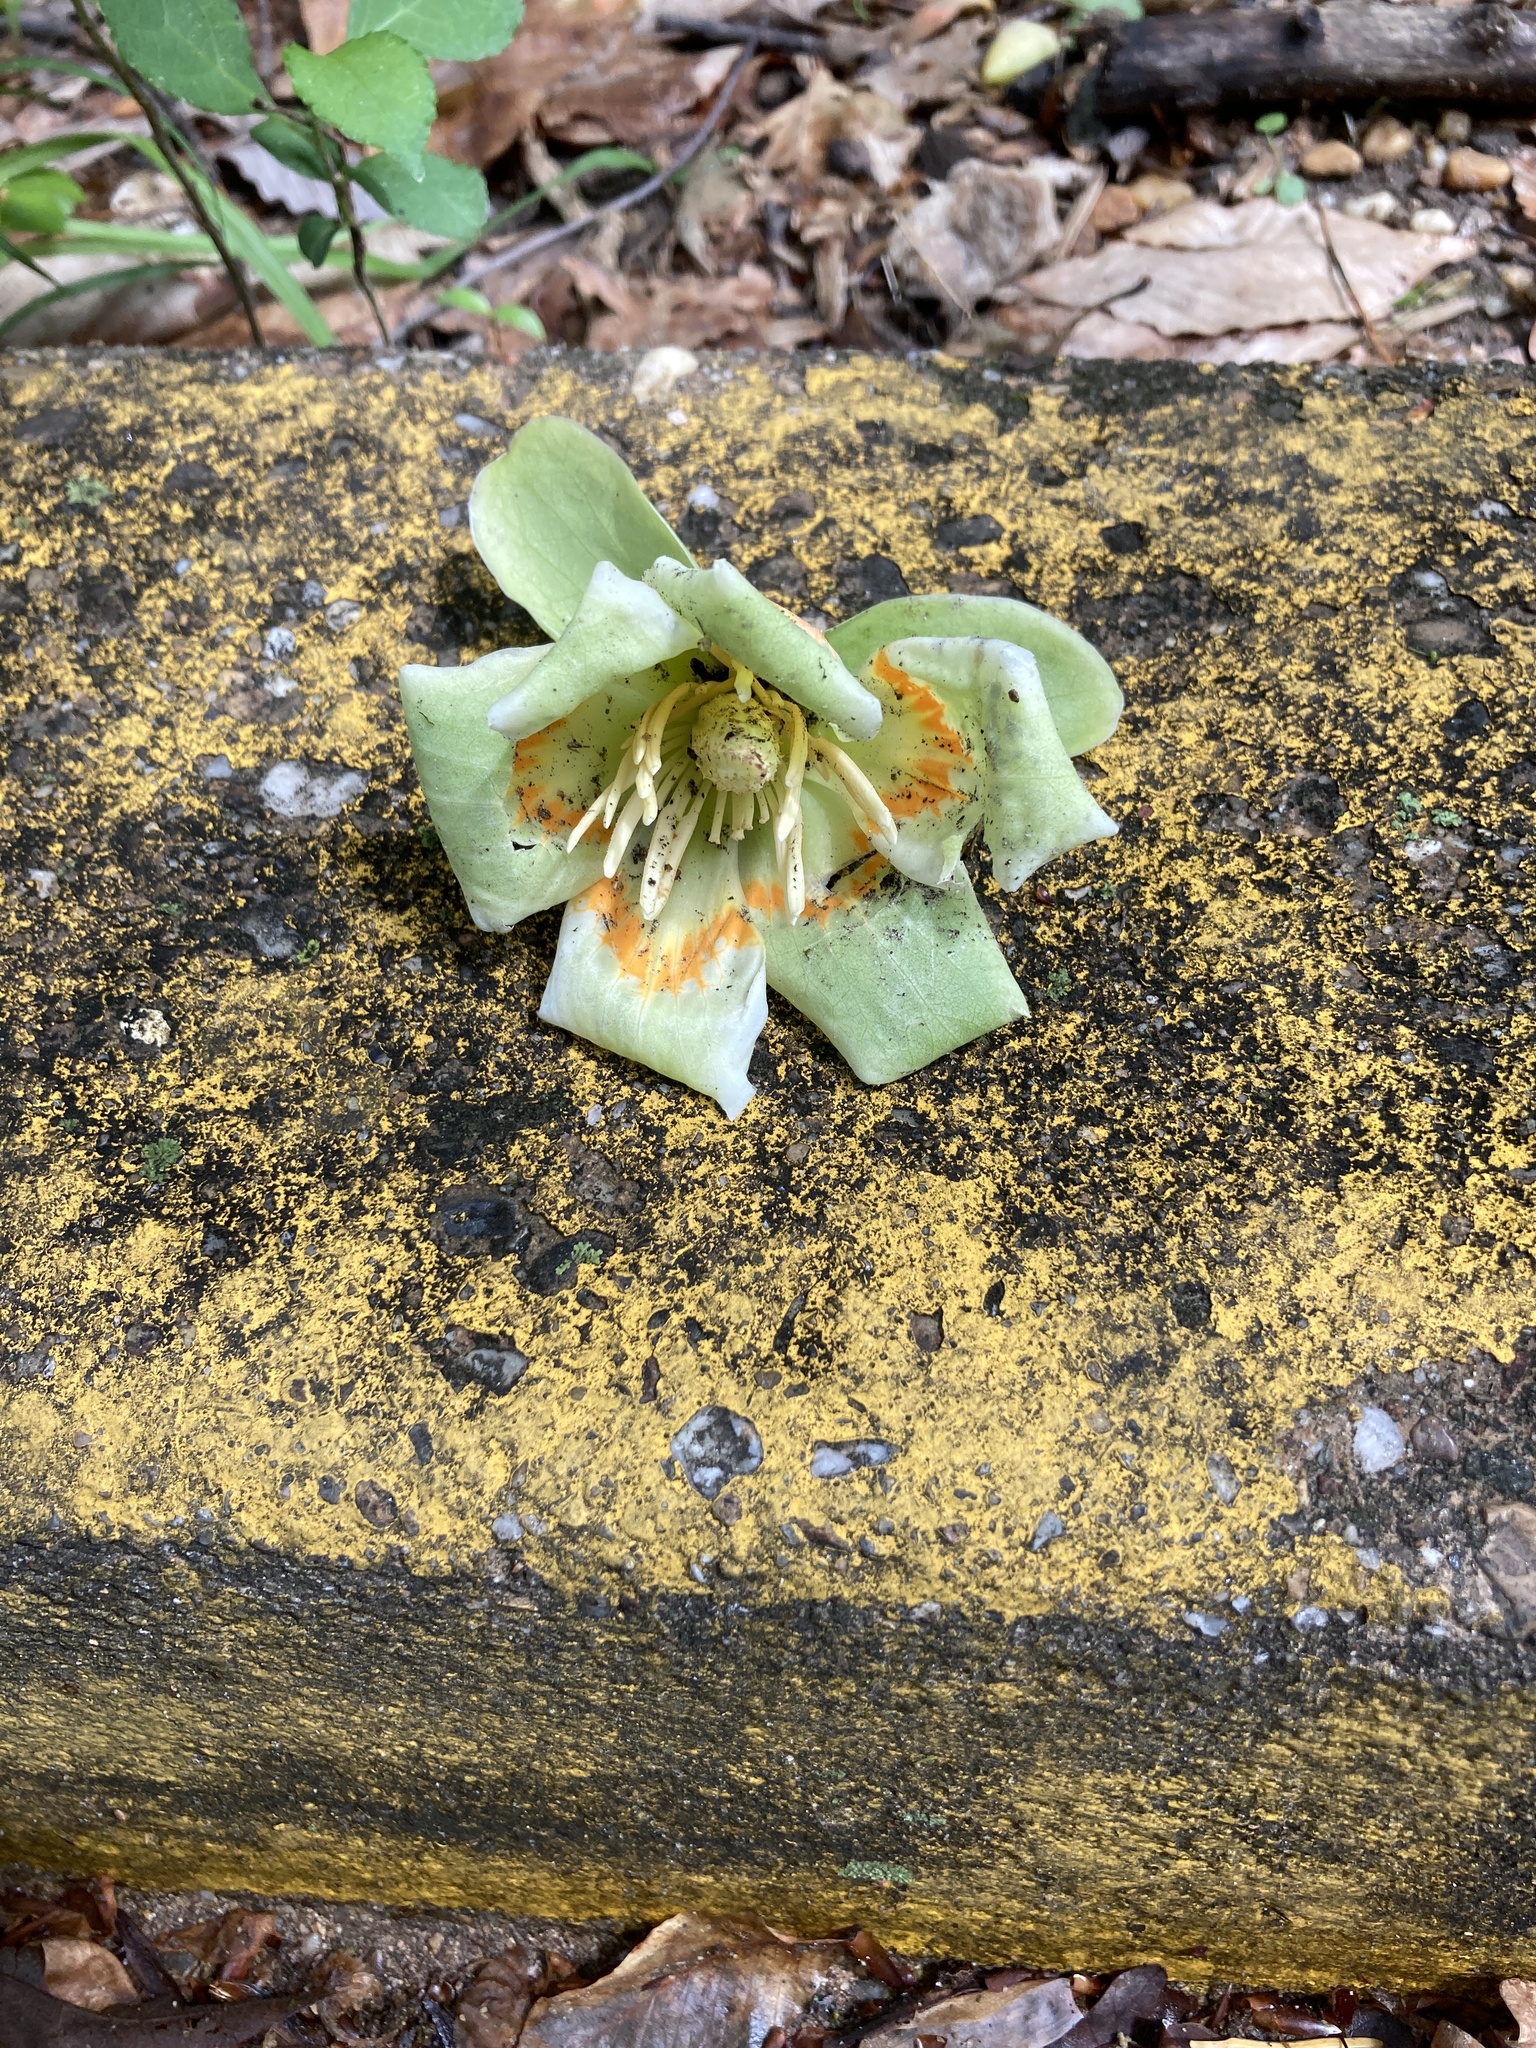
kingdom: Plantae
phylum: Tracheophyta
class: Magnoliopsida
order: Magnoliales
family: Magnoliaceae
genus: Liriodendron
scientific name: Liriodendron tulipifera
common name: Tulip tree
